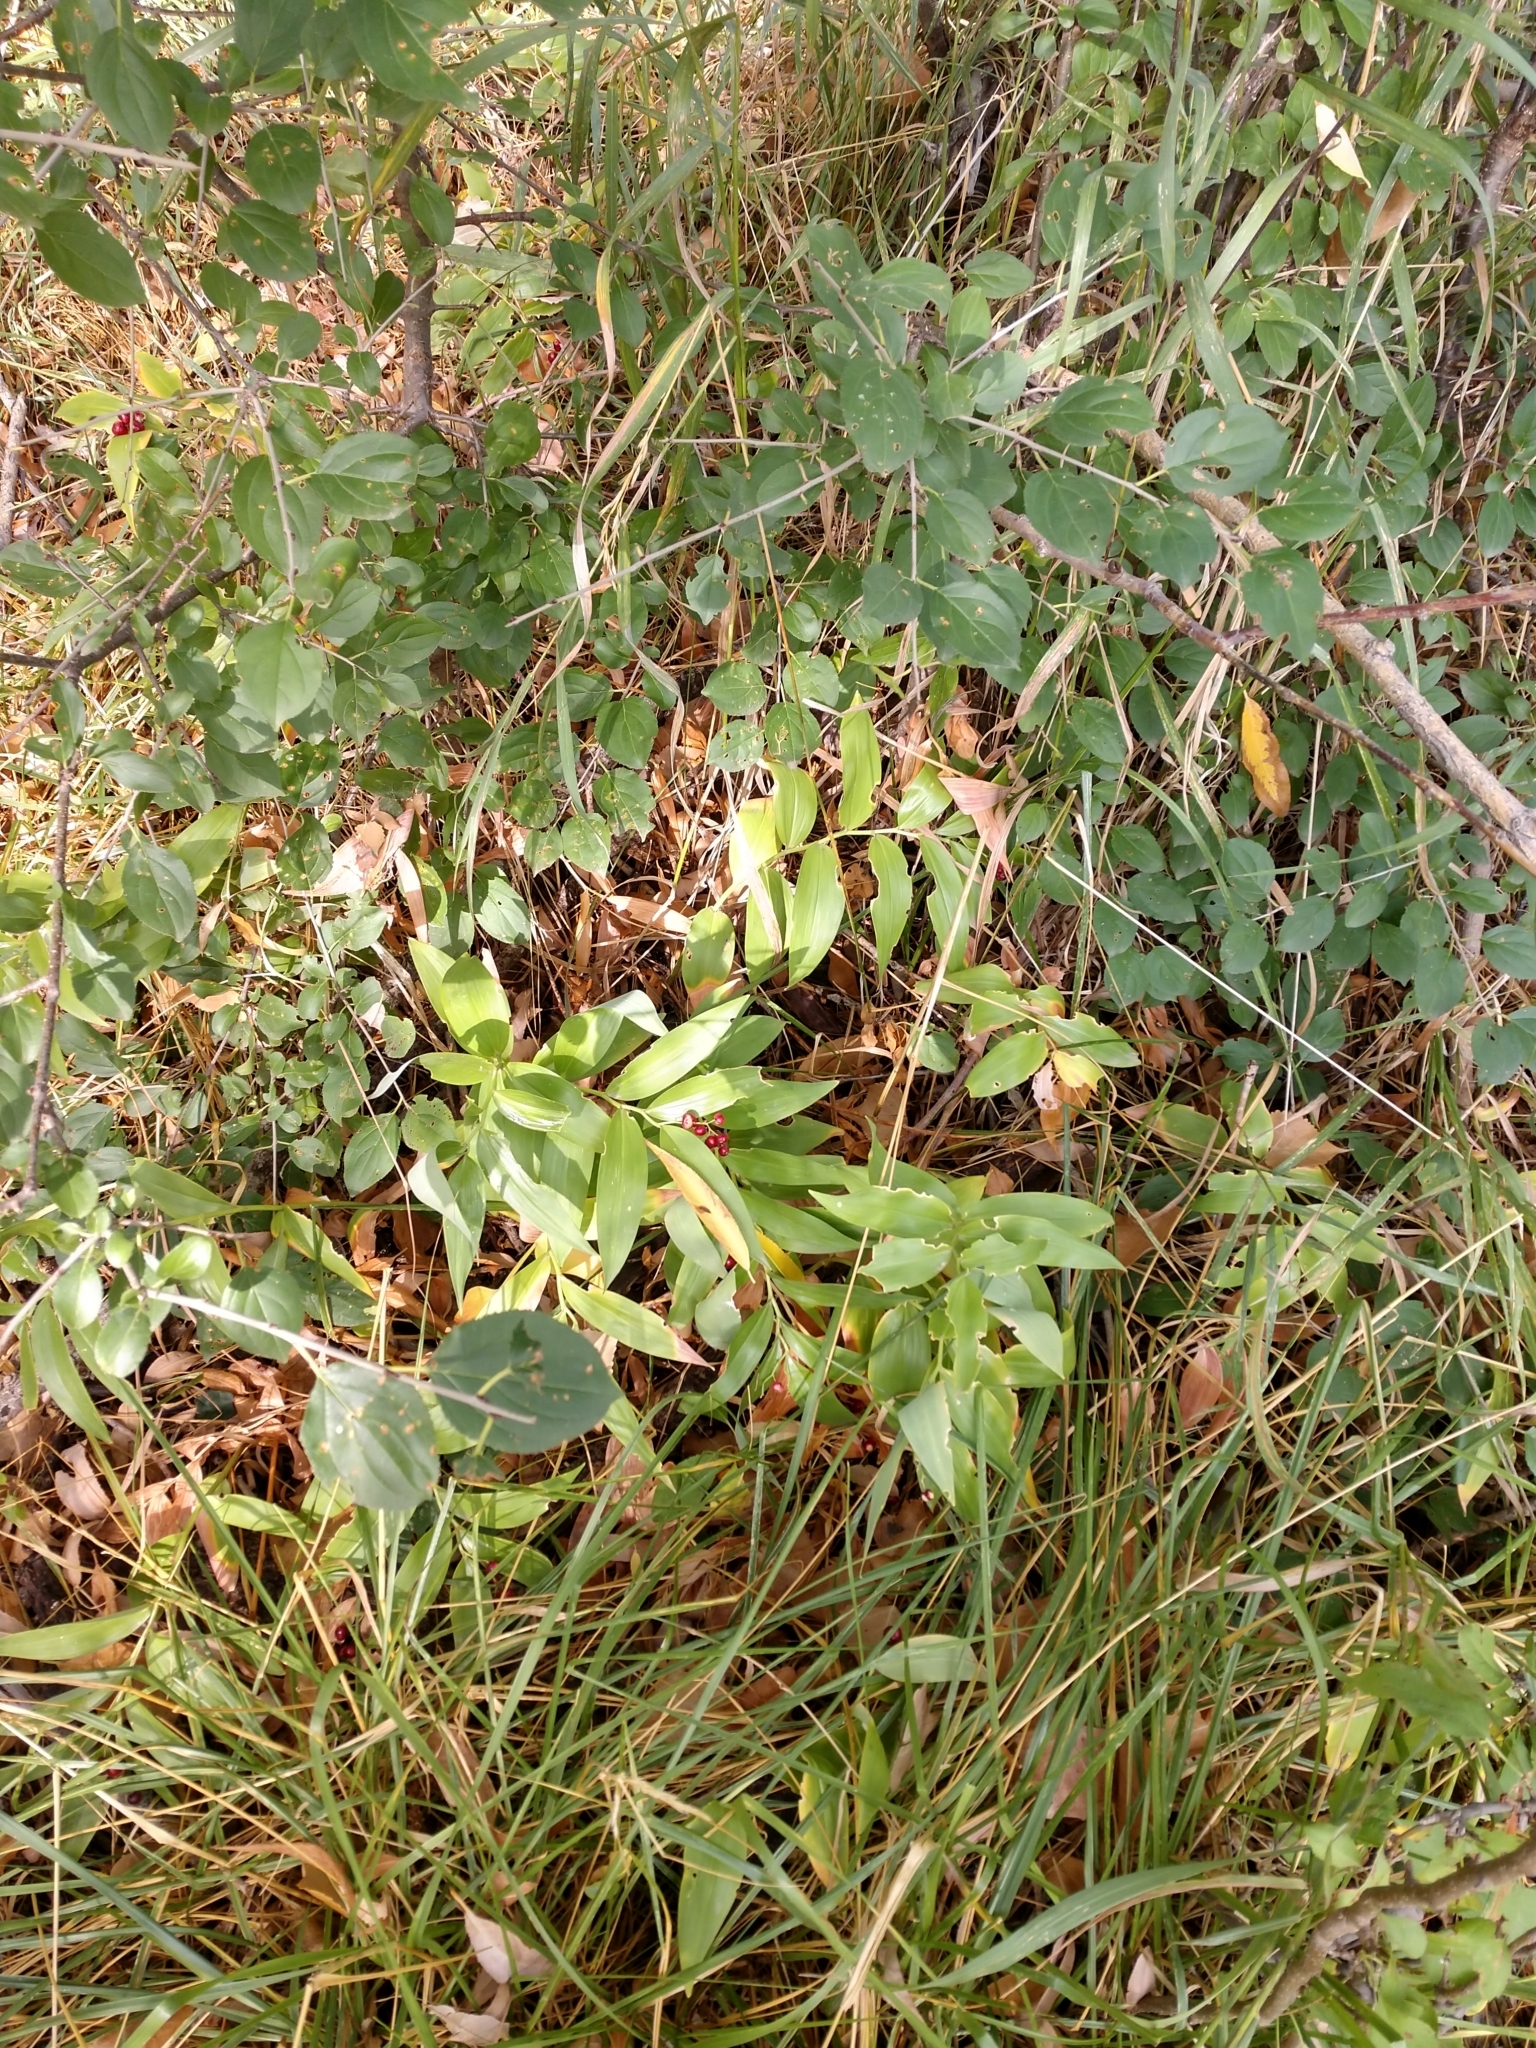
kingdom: Plantae
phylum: Tracheophyta
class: Liliopsida
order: Asparagales
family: Asparagaceae
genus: Maianthemum
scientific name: Maianthemum stellatum
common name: Little false solomon's seal
